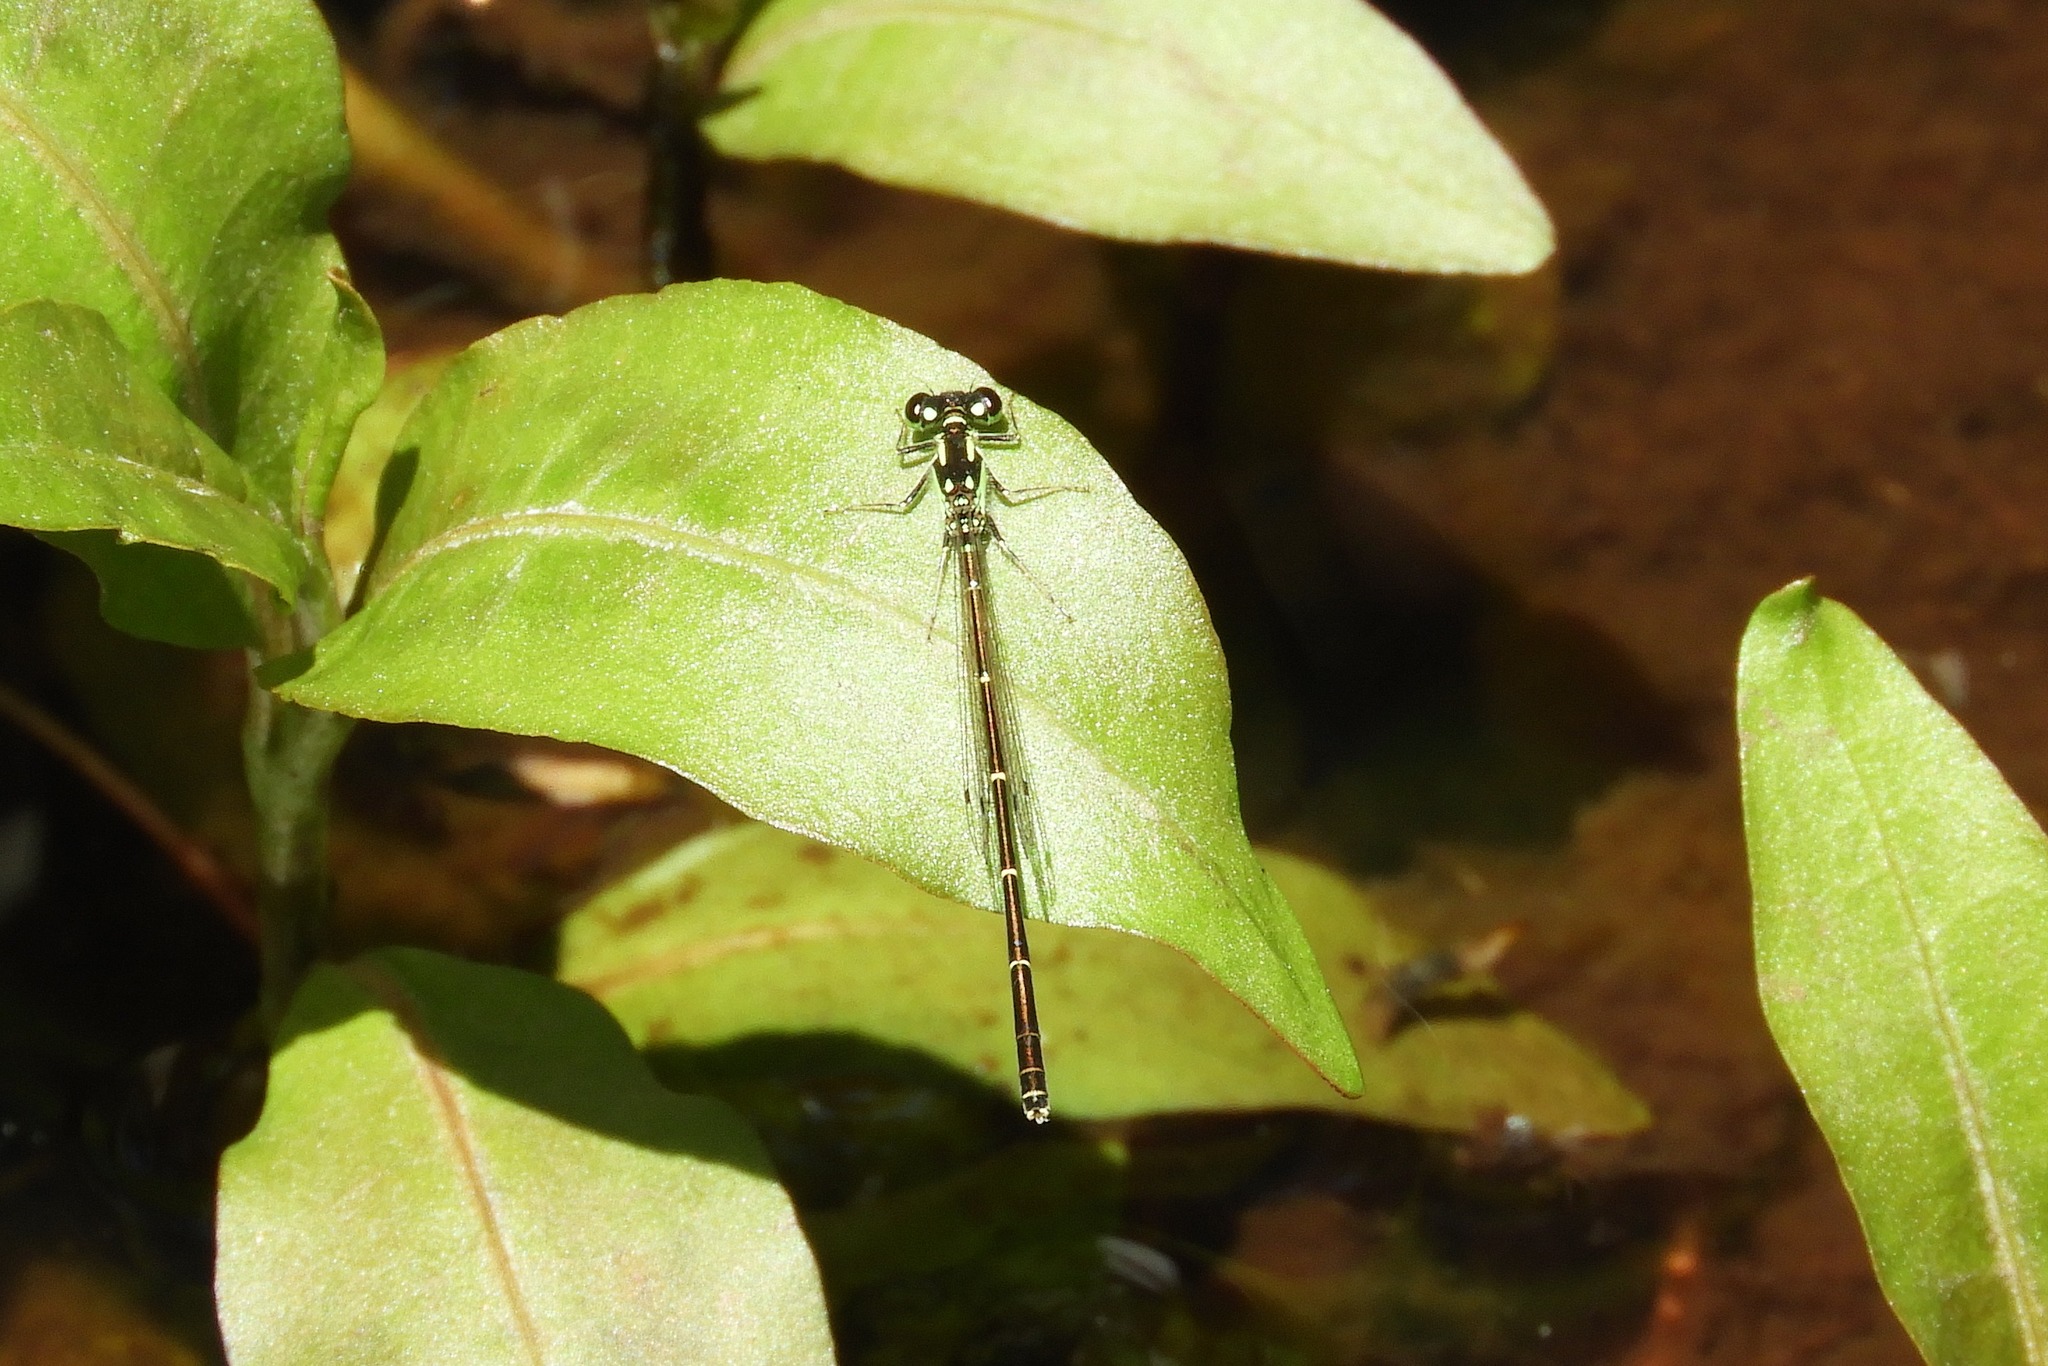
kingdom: Animalia
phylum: Arthropoda
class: Insecta
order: Odonata
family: Coenagrionidae
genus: Ischnura
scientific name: Ischnura posita
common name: Fragile forktail
